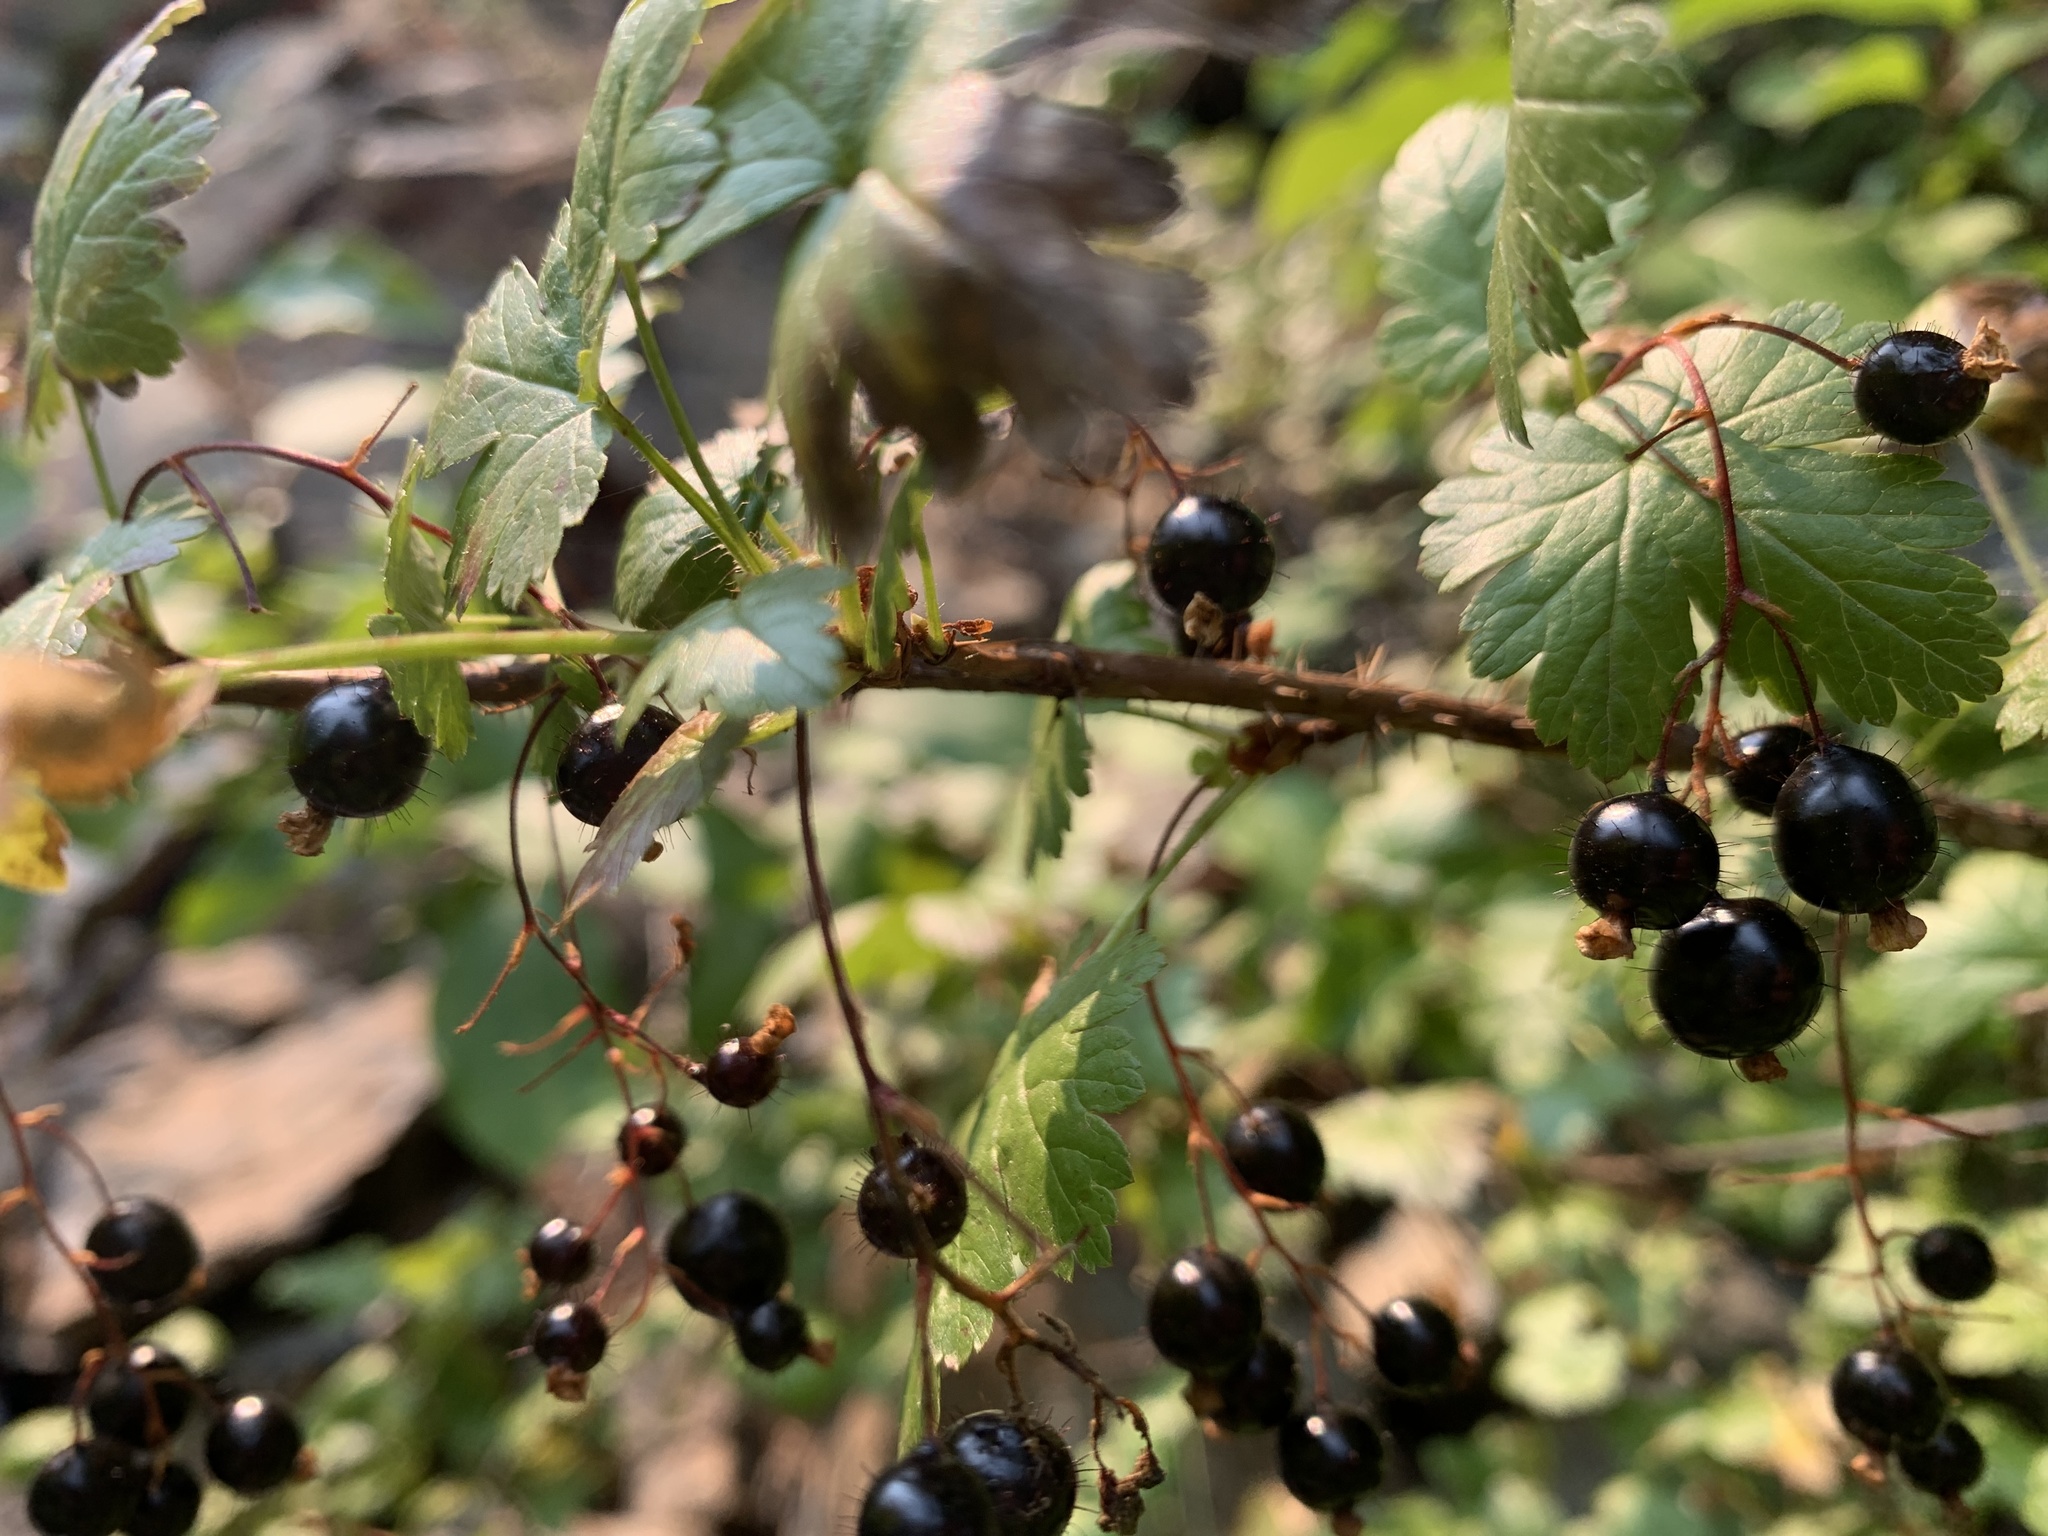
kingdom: Plantae
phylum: Tracheophyta
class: Magnoliopsida
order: Saxifragales
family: Grossulariaceae
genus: Ribes
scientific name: Ribes lacustre
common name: Black gooseberry
